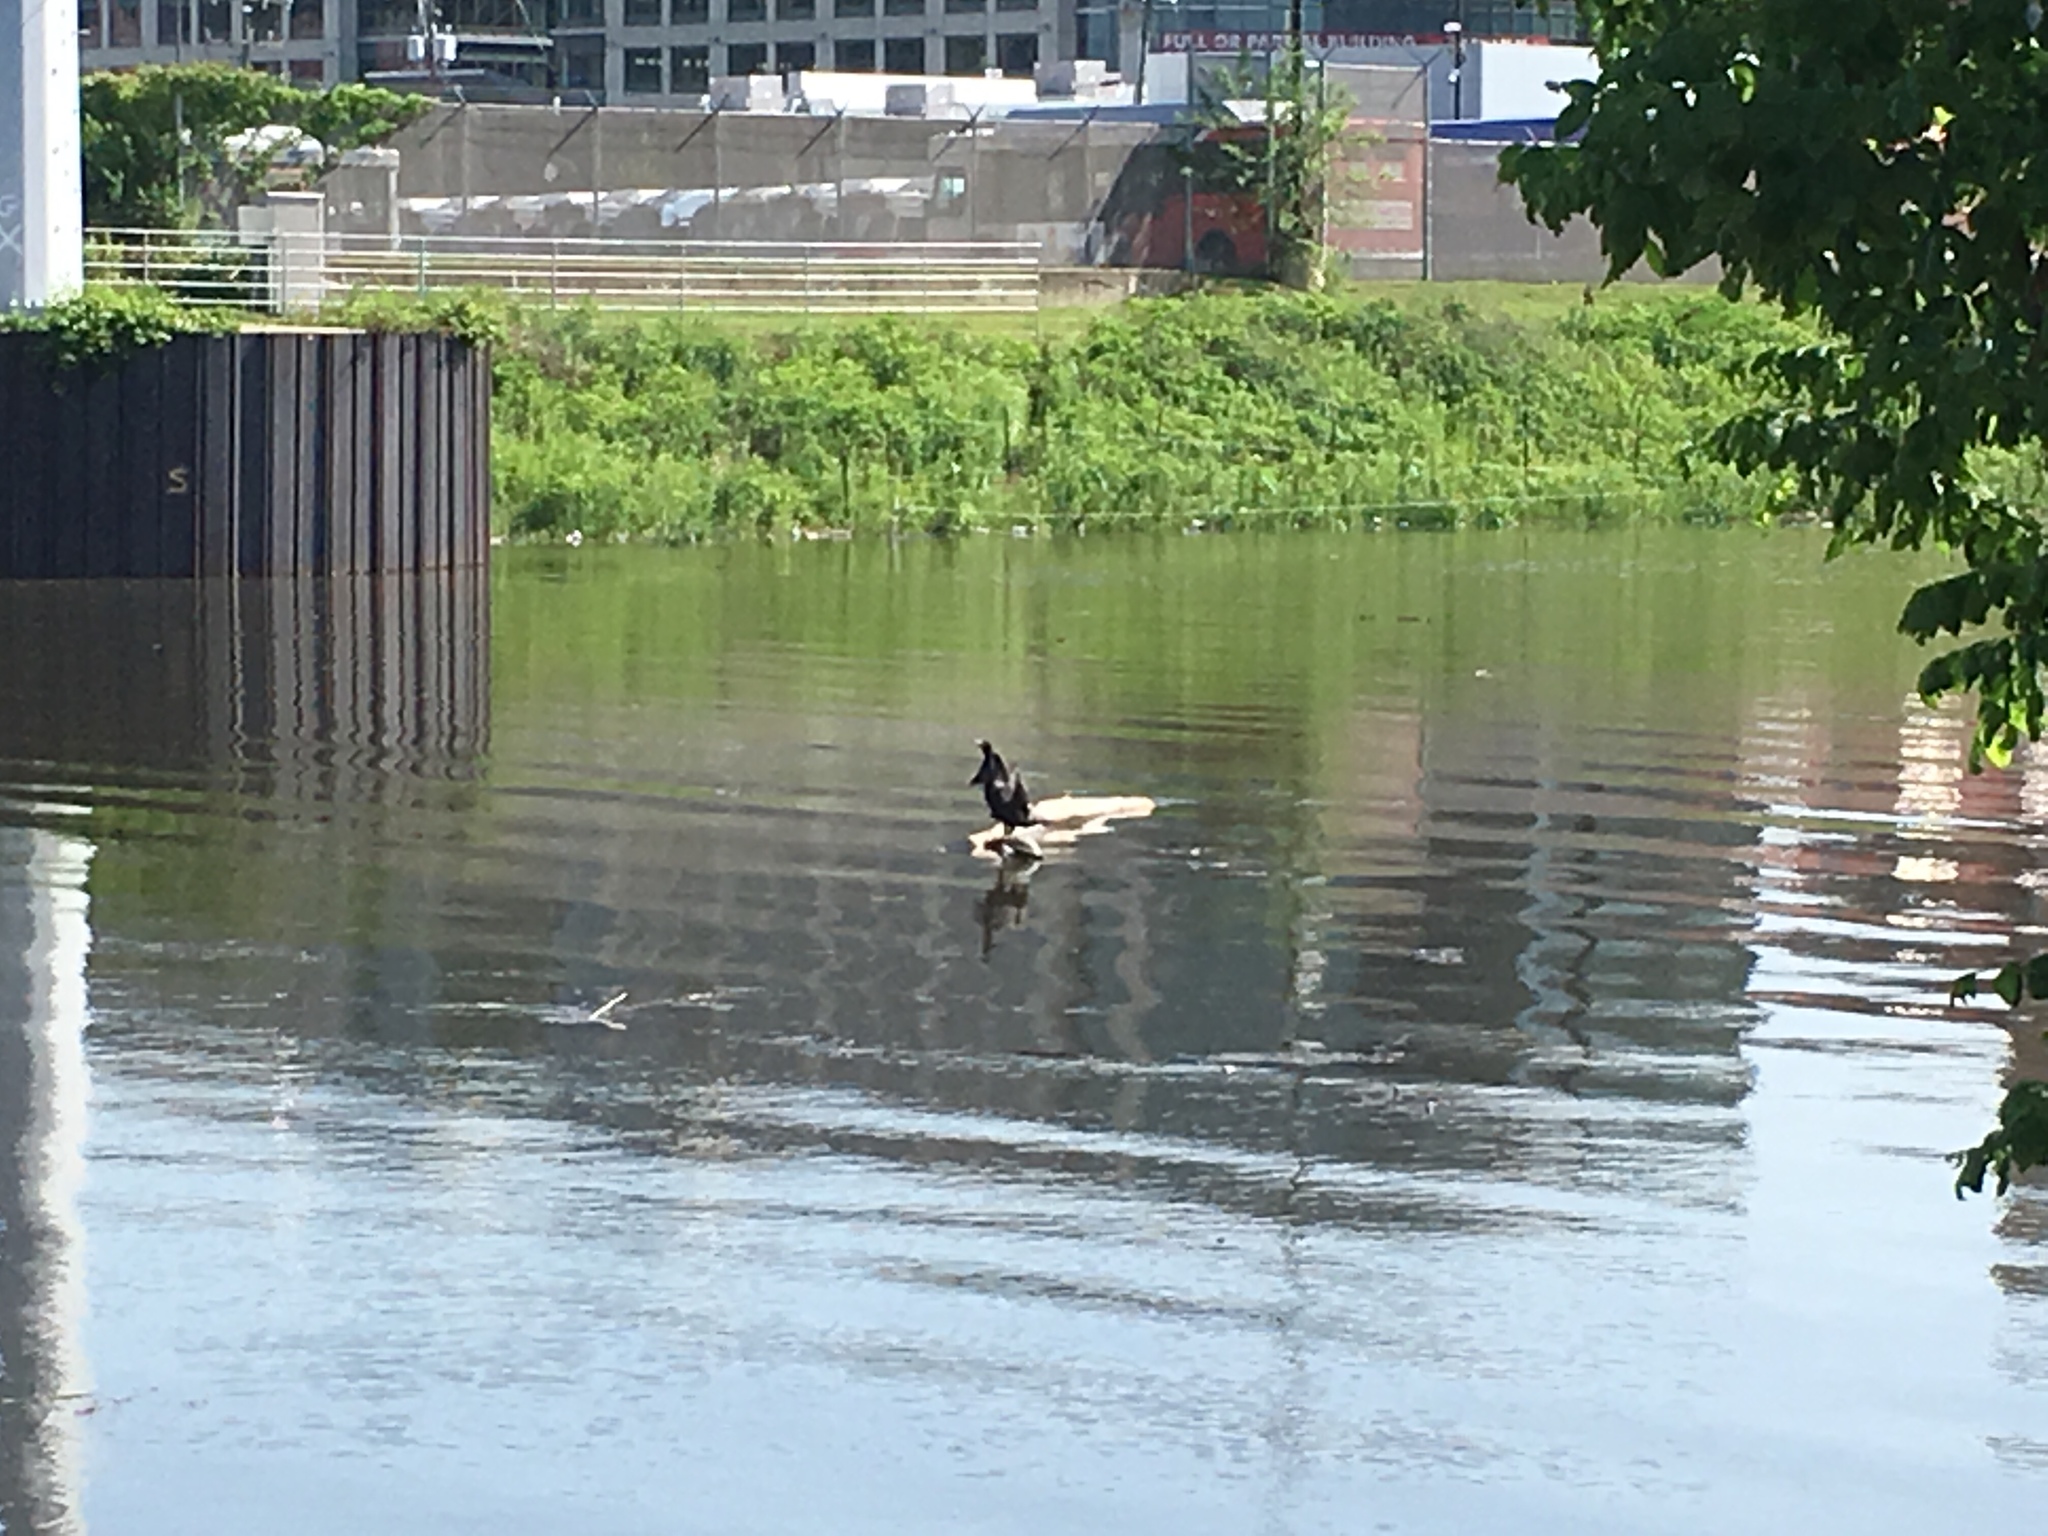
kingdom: Animalia
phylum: Chordata
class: Aves
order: Suliformes
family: Phalacrocoracidae
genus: Phalacrocorax
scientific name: Phalacrocorax auritus
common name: Double-crested cormorant
